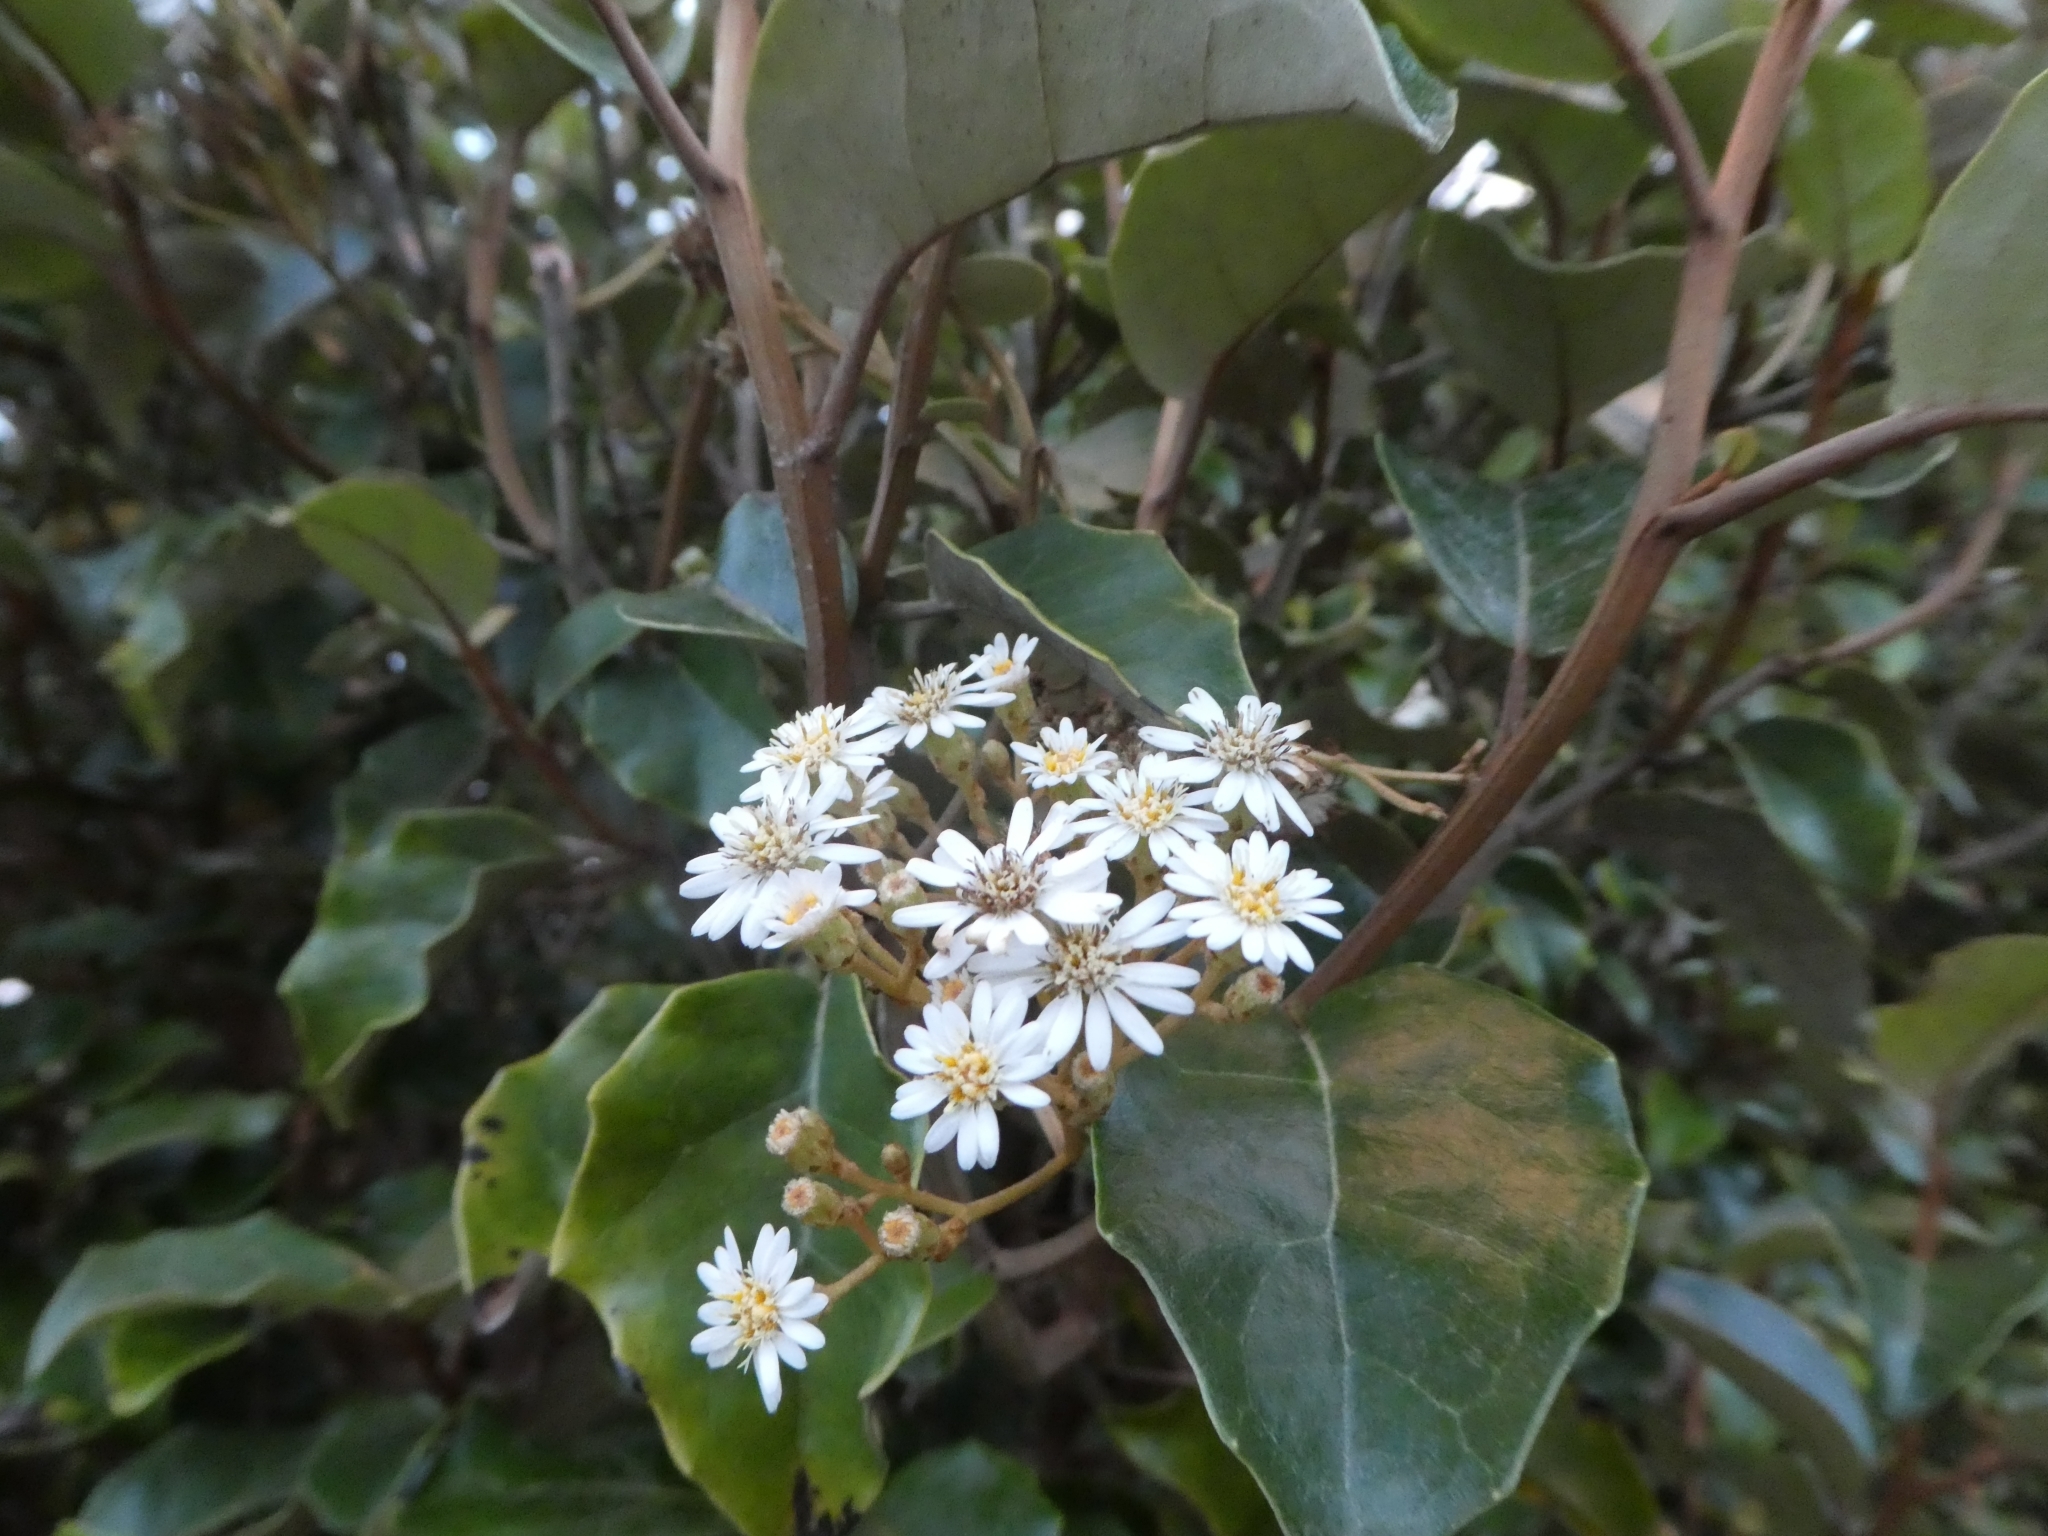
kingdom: Plantae
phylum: Tracheophyta
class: Magnoliopsida
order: Asterales
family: Asteraceae
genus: Olearia
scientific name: Olearia arborescens
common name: Glossy tree daisy
